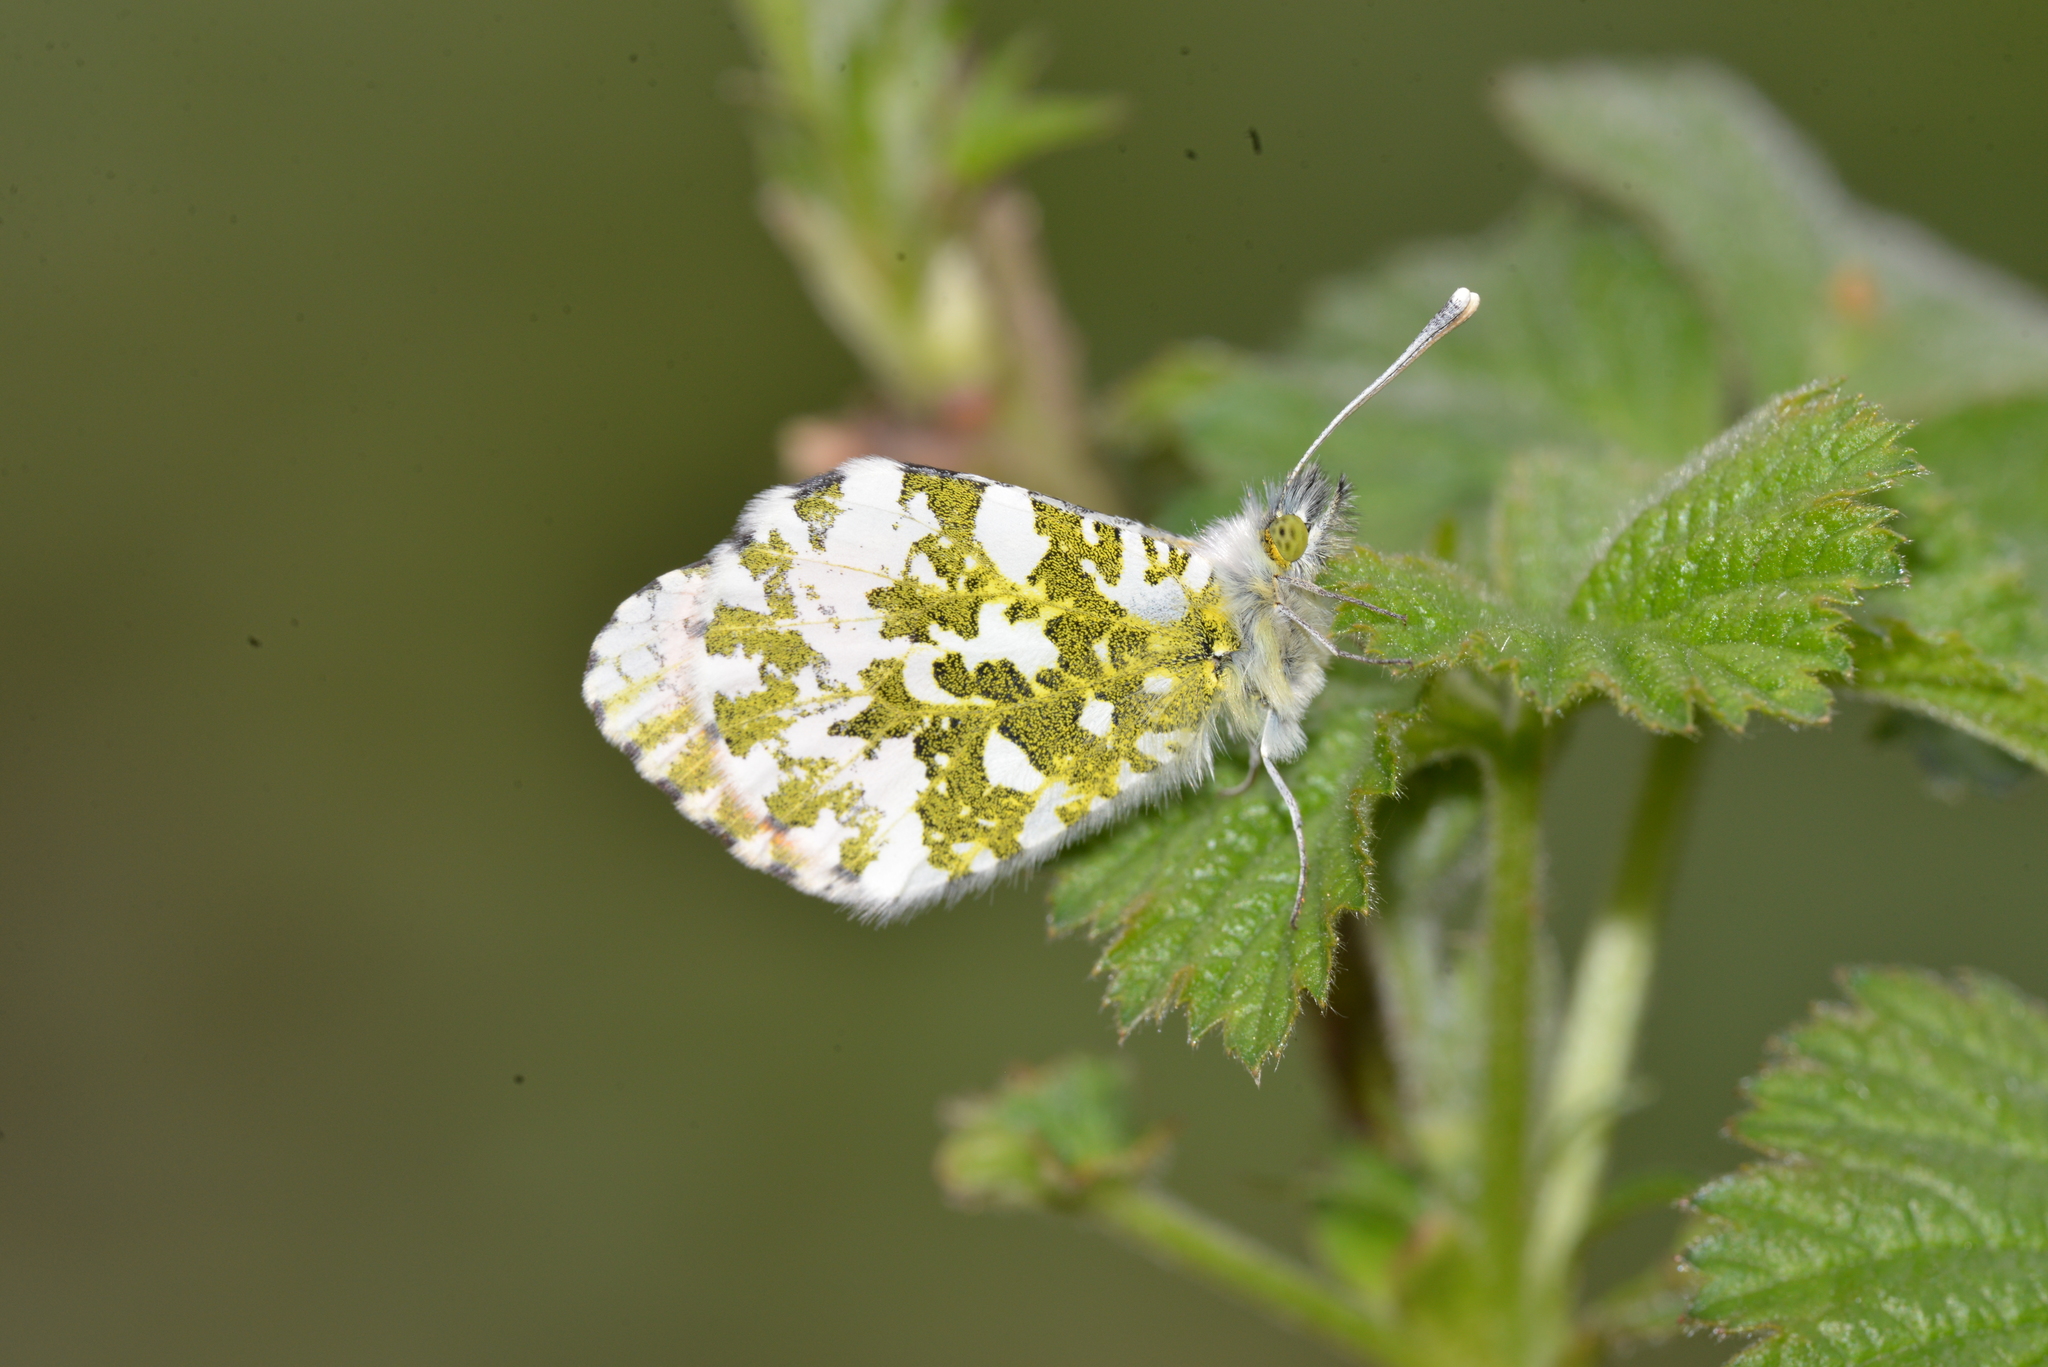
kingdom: Animalia
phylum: Arthropoda
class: Insecta
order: Lepidoptera
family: Pieridae
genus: Anthocharis
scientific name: Anthocharis cardamines
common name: Orange-tip
